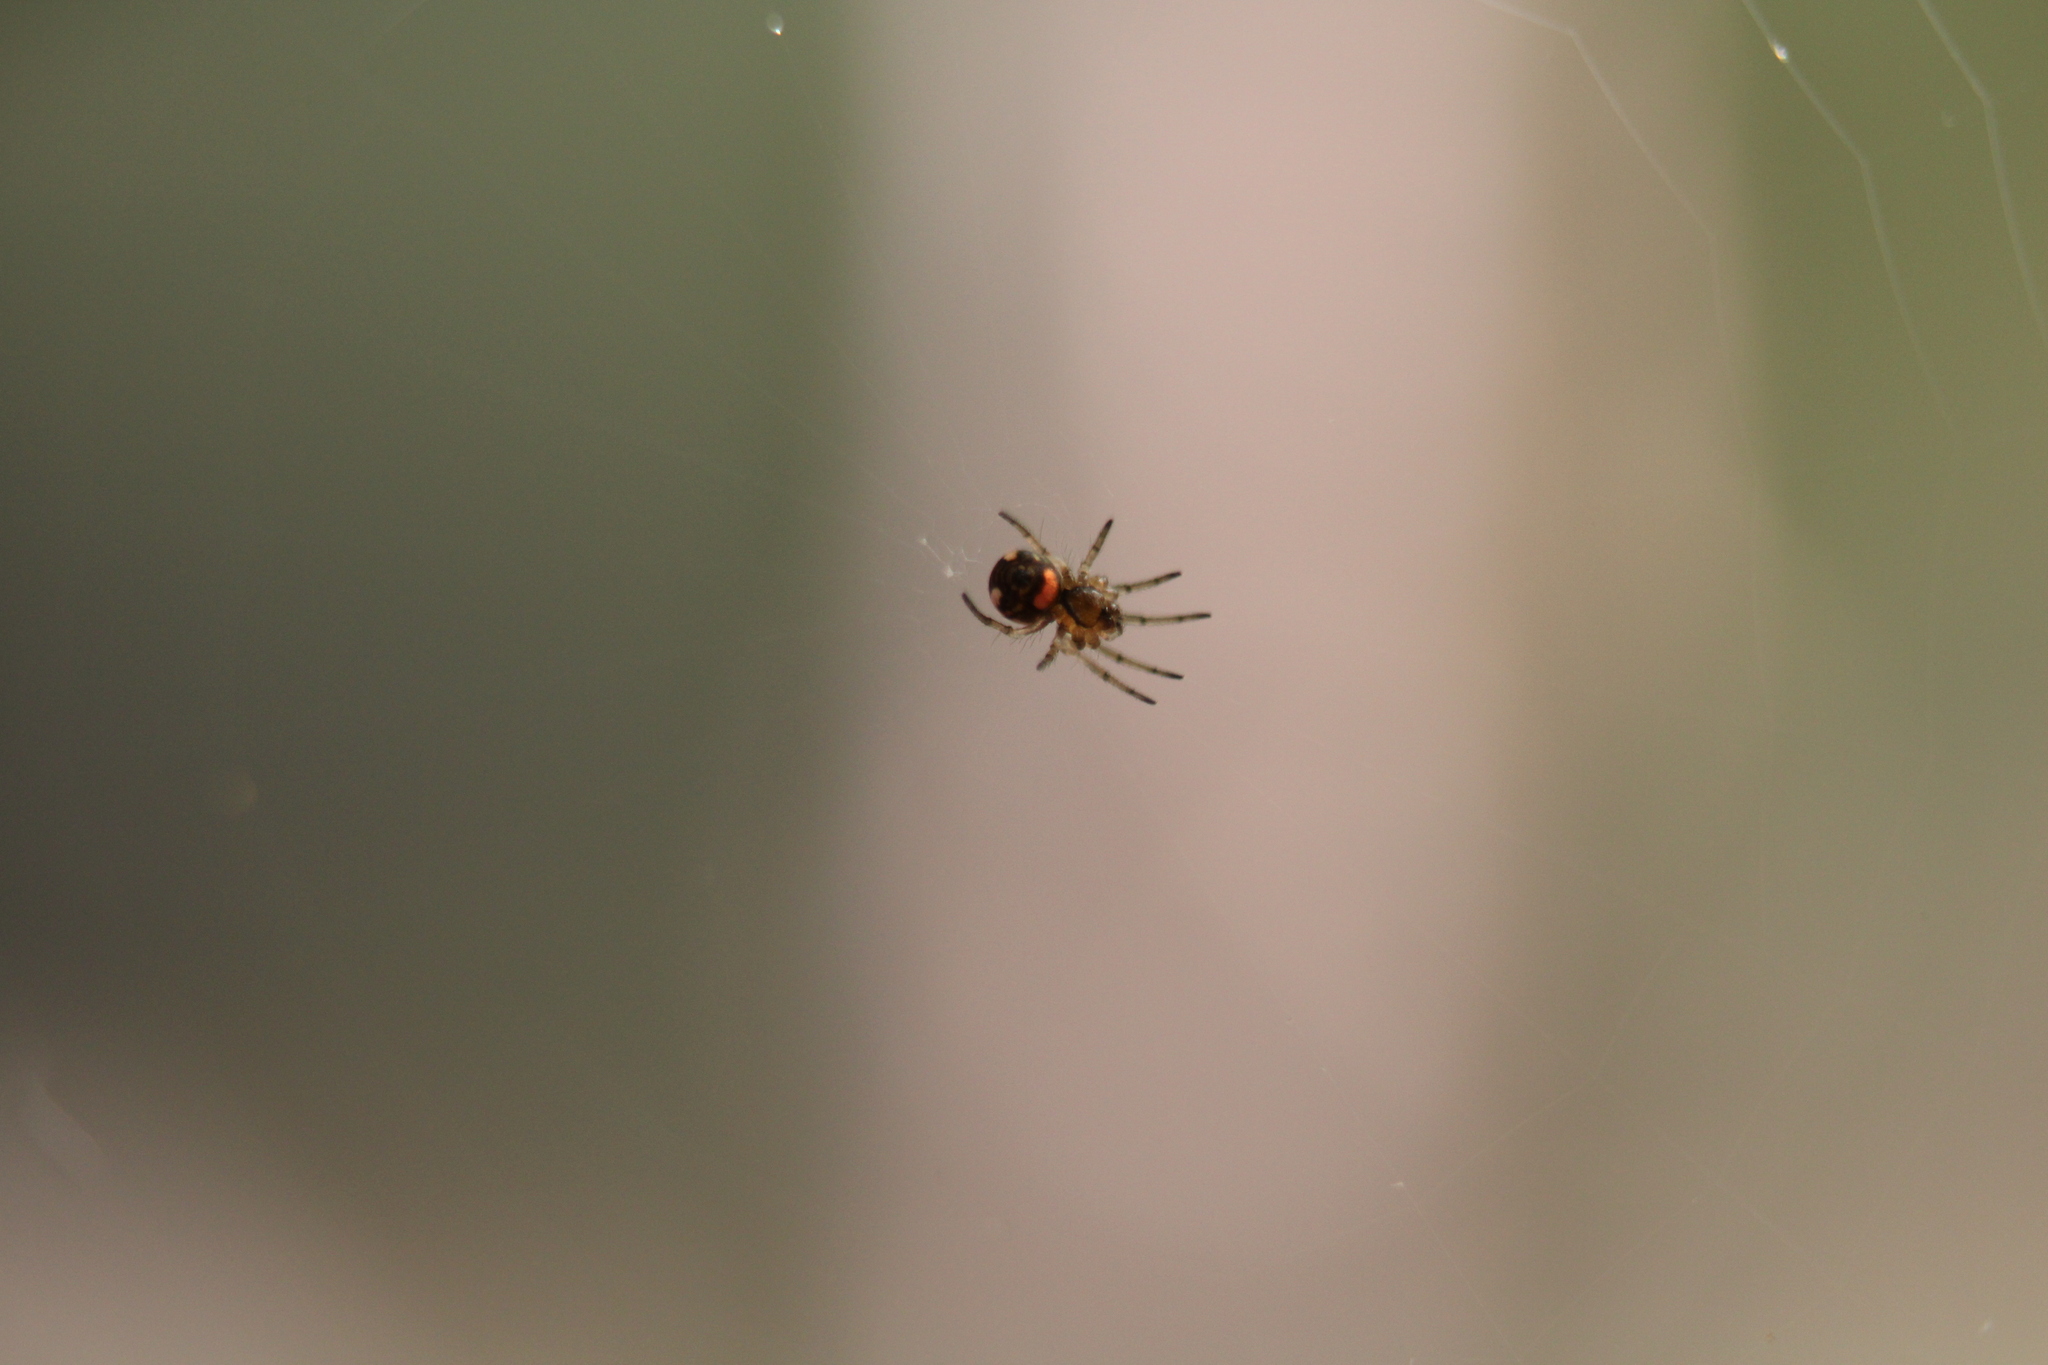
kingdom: Animalia
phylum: Arthropoda
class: Arachnida
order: Araneae
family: Tetragnathidae
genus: Leucauge
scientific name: Leucauge venusta
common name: Longjawed orb weavers
